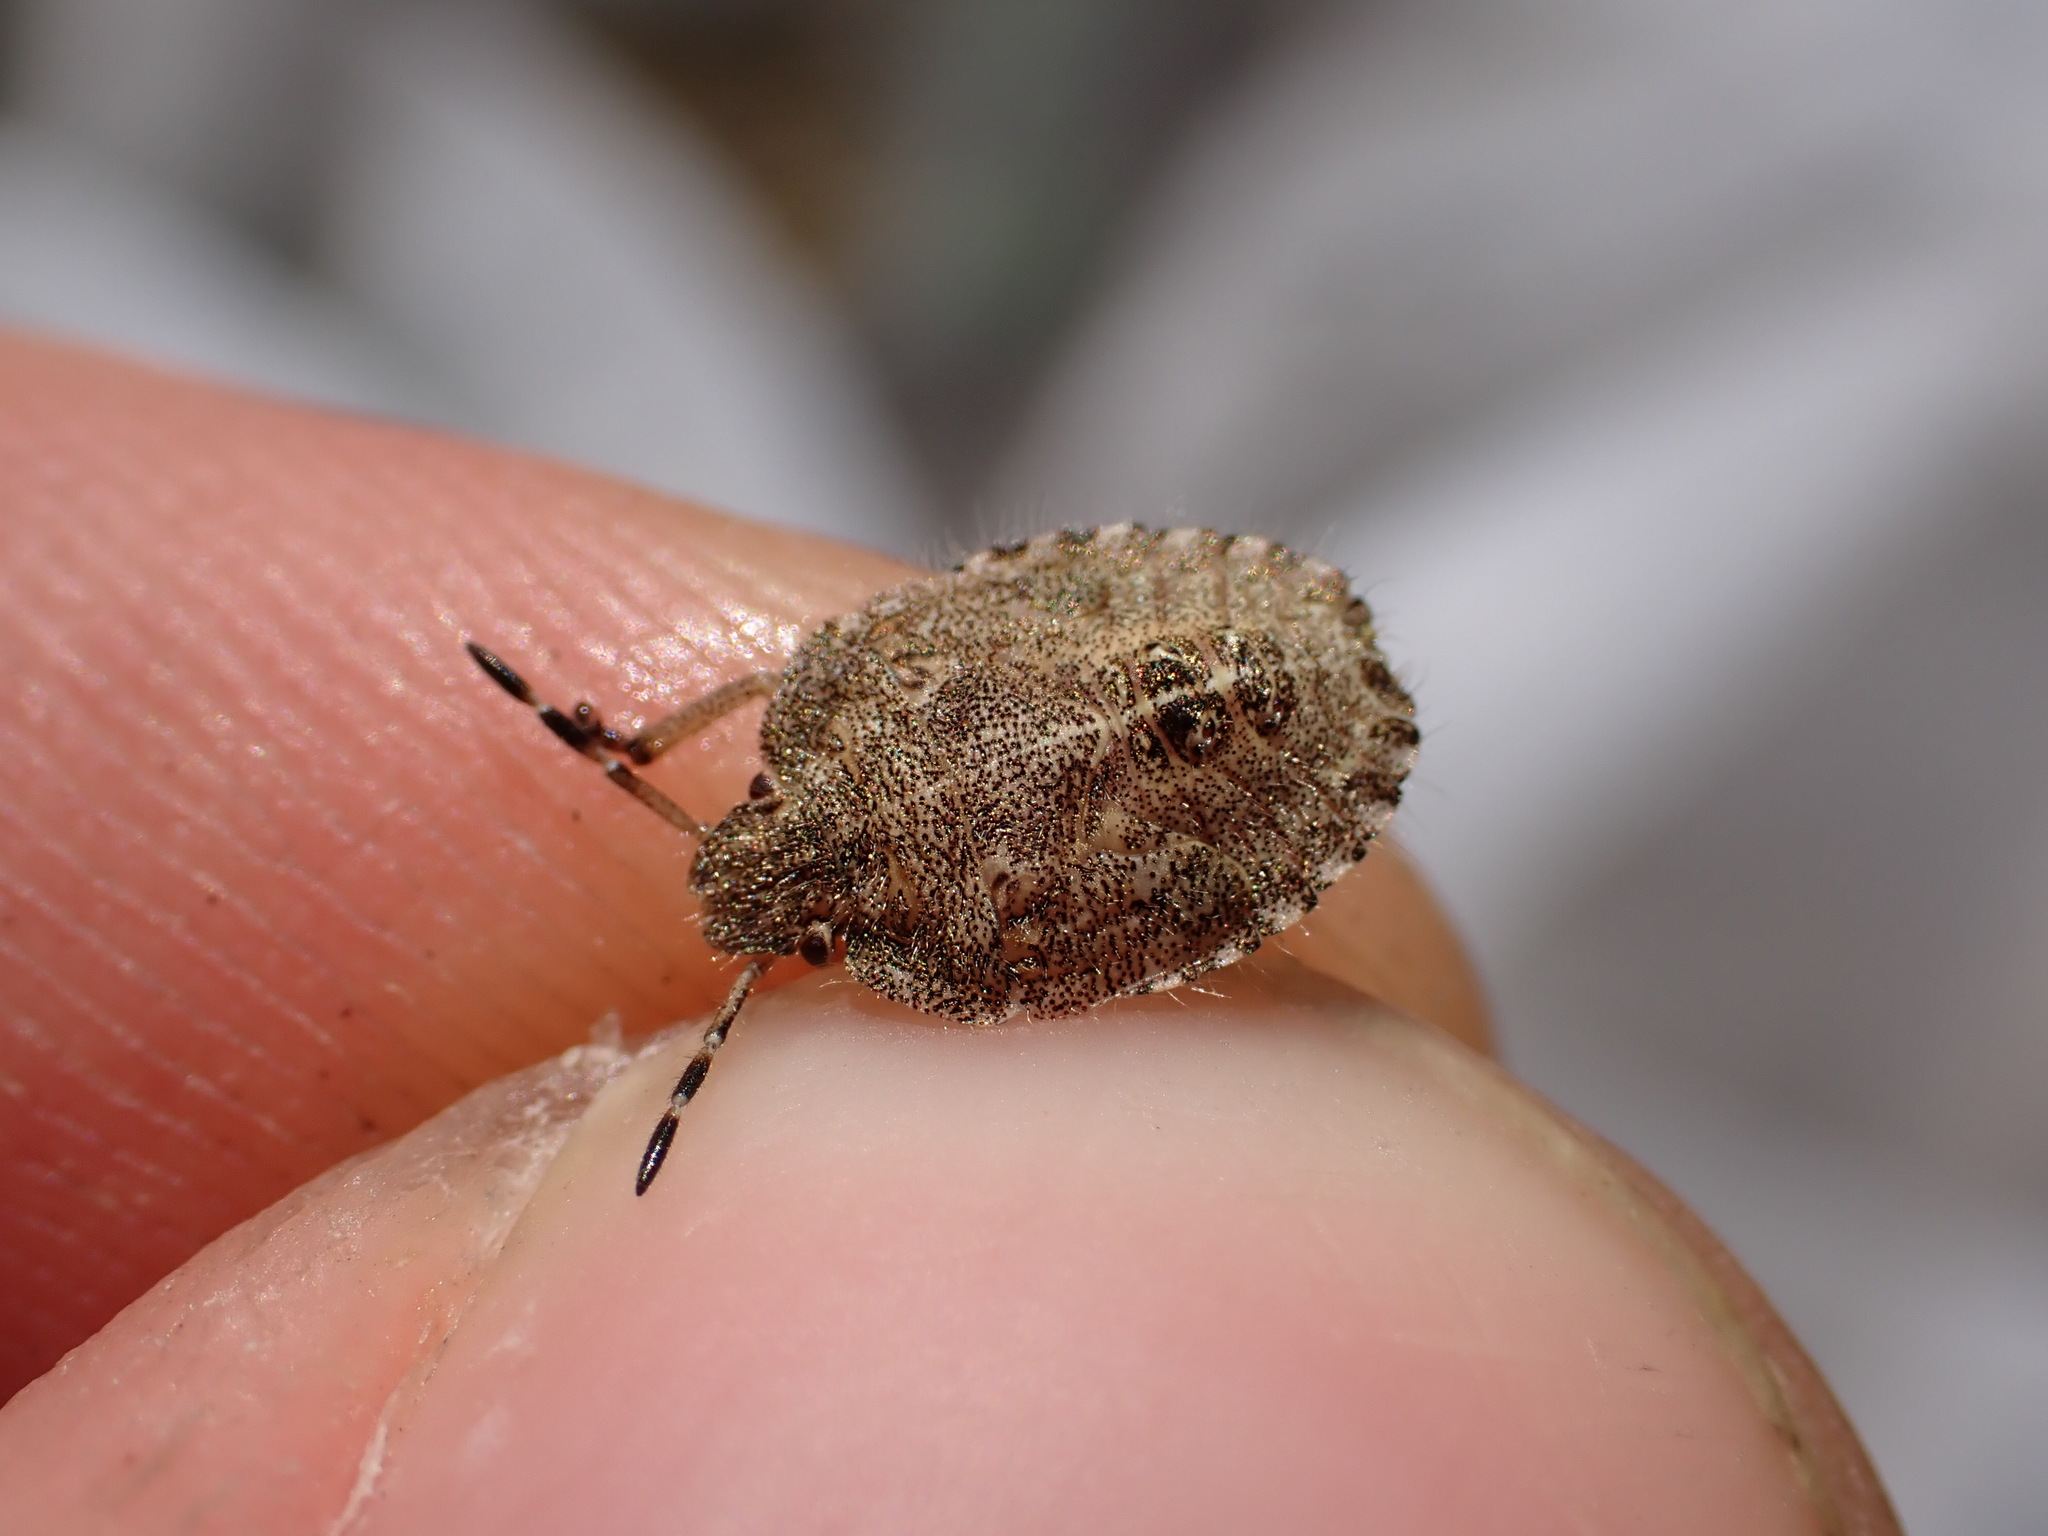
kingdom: Animalia
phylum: Arthropoda
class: Insecta
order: Hemiptera
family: Pentatomidae
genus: Dolycoris
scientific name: Dolycoris baccarum
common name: Sloe bug
